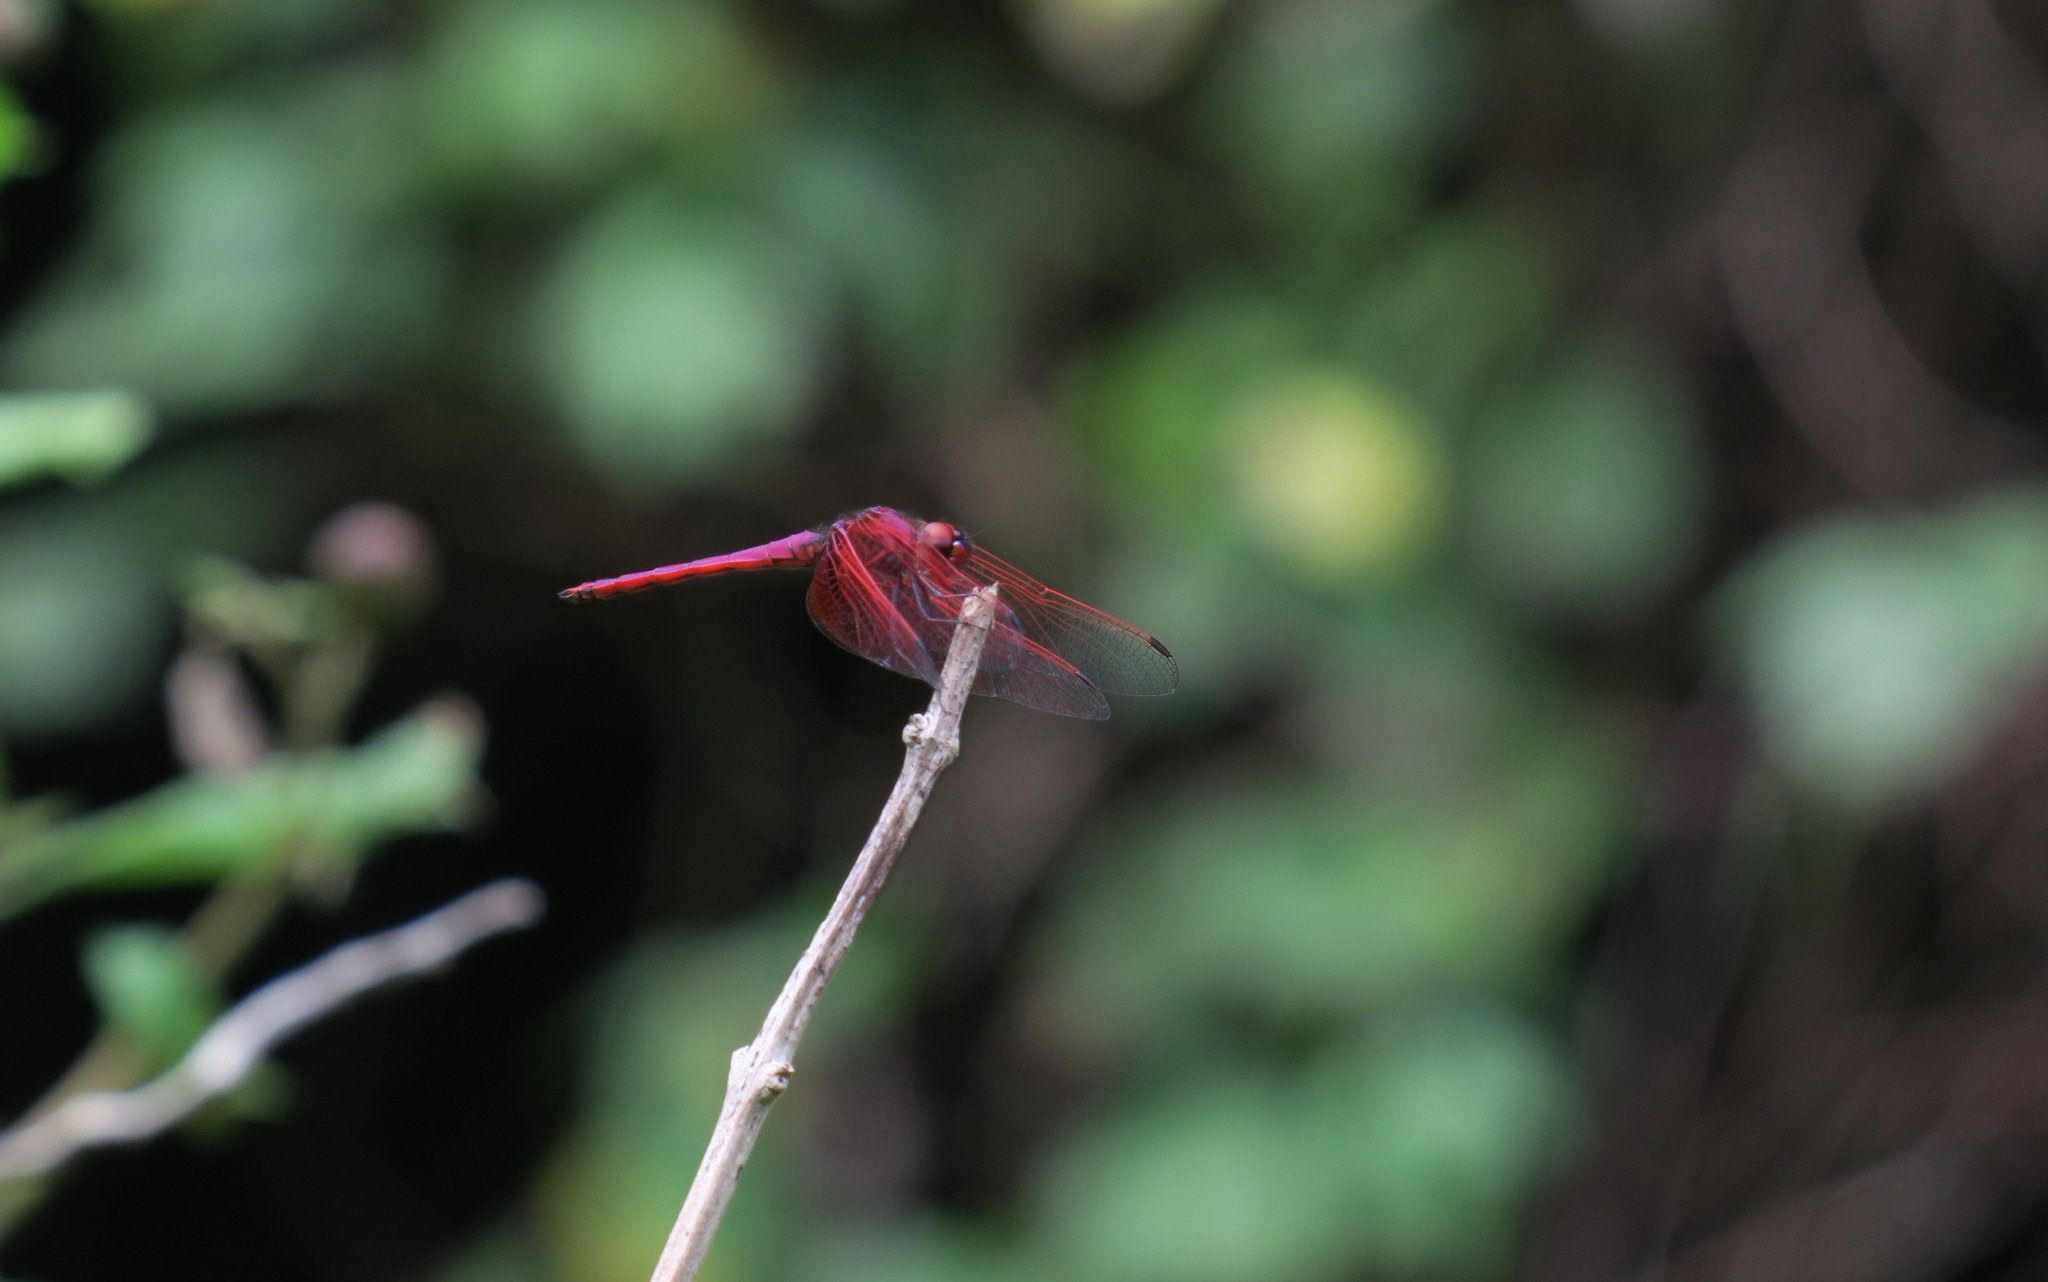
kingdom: Animalia
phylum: Arthropoda
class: Insecta
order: Odonata
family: Libellulidae
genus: Trithemis
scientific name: Trithemis aurora
